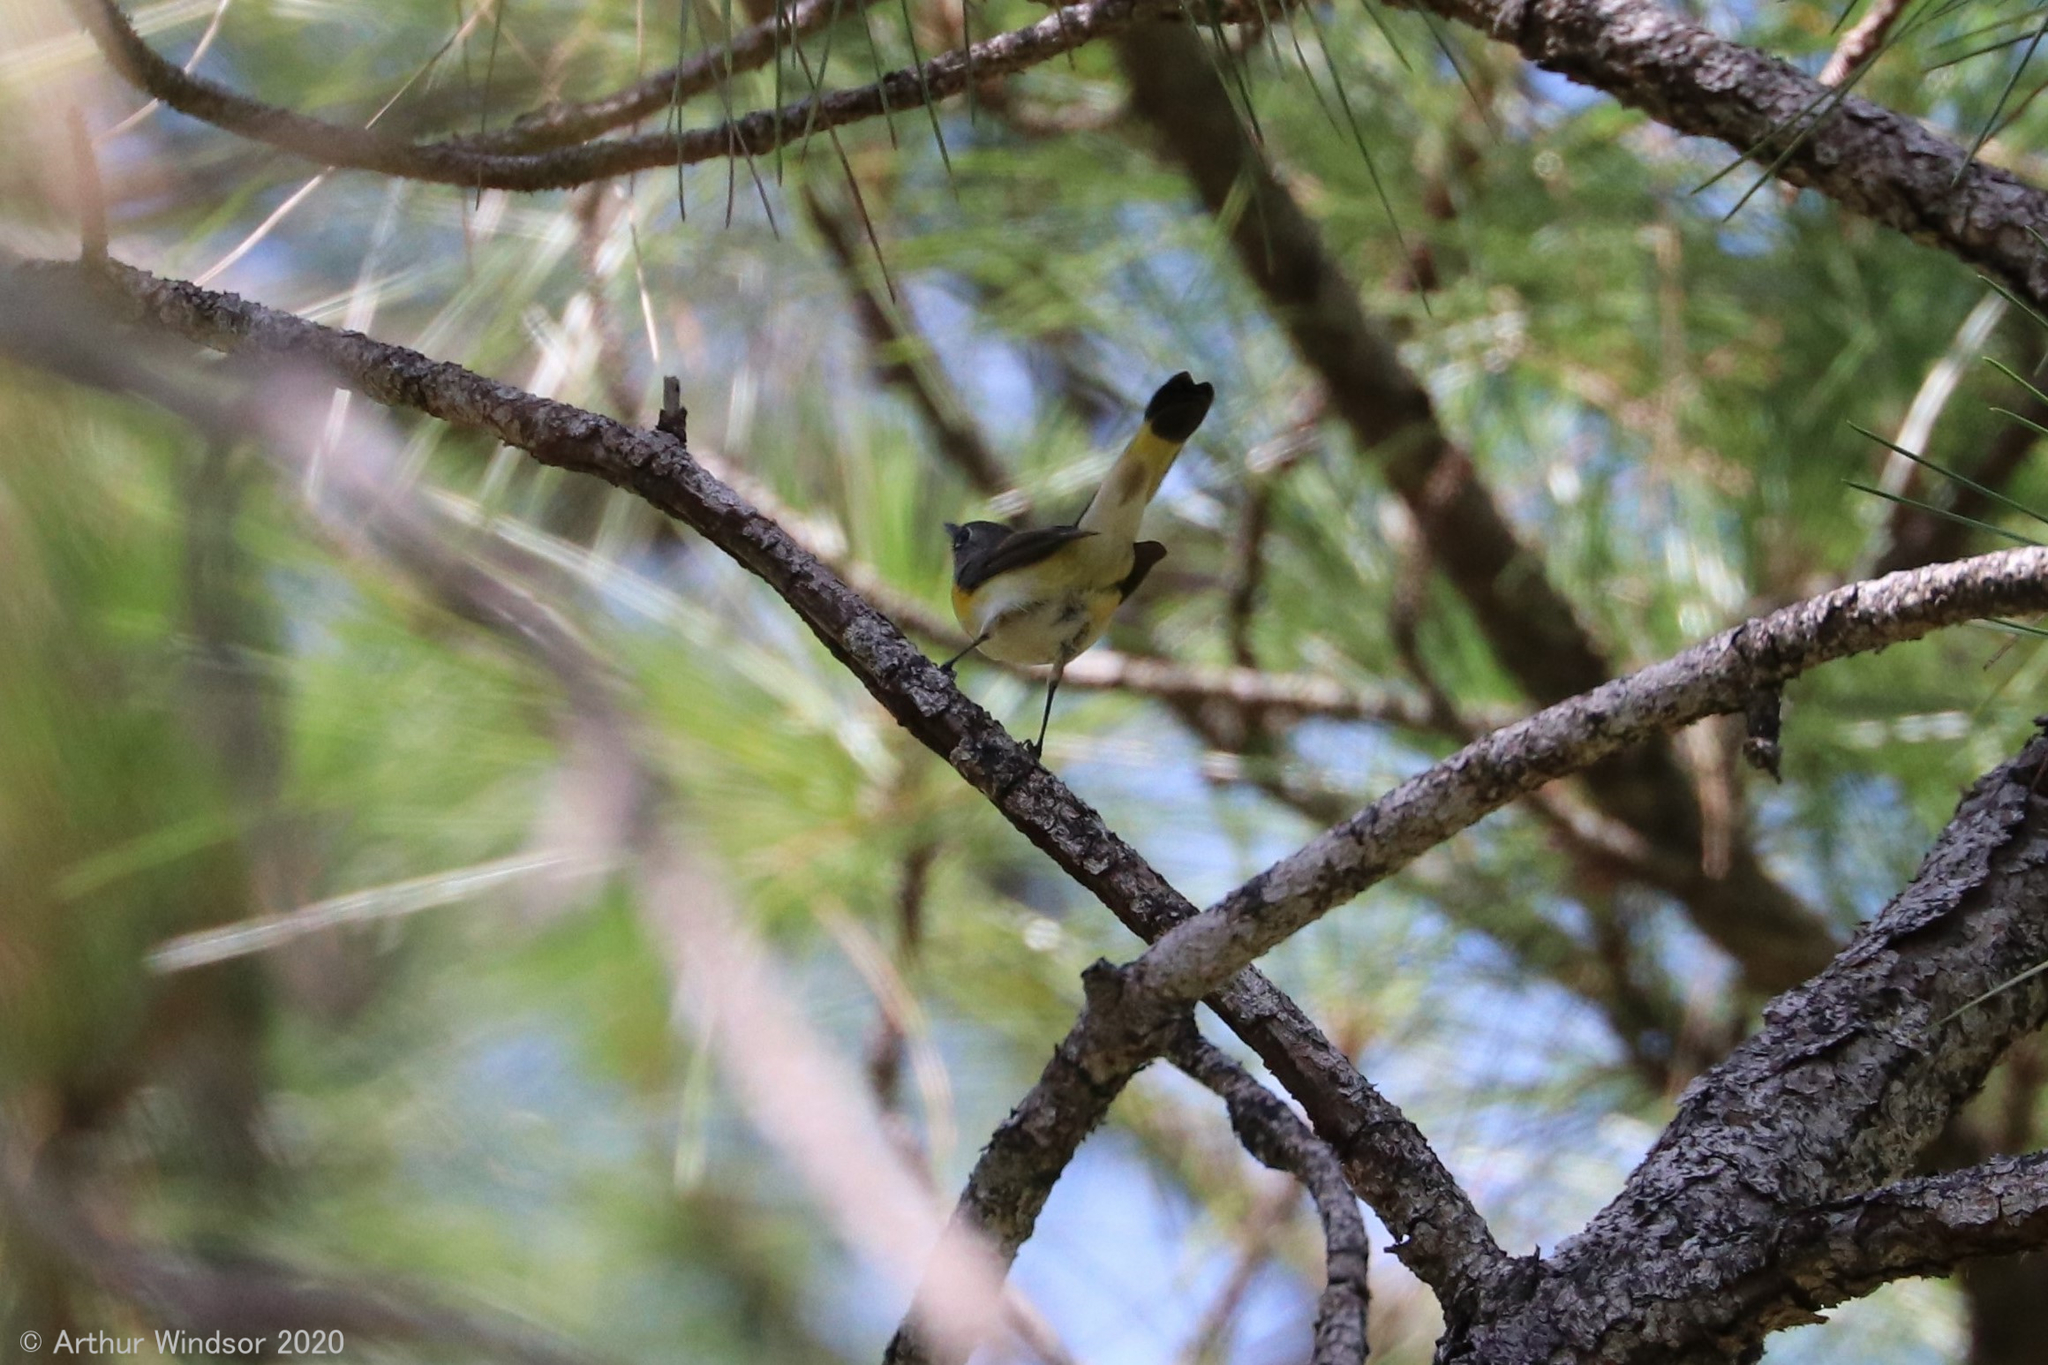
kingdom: Animalia
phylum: Chordata
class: Aves
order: Passeriformes
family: Parulidae
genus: Setophaga
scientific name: Setophaga ruticilla
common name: American redstart
